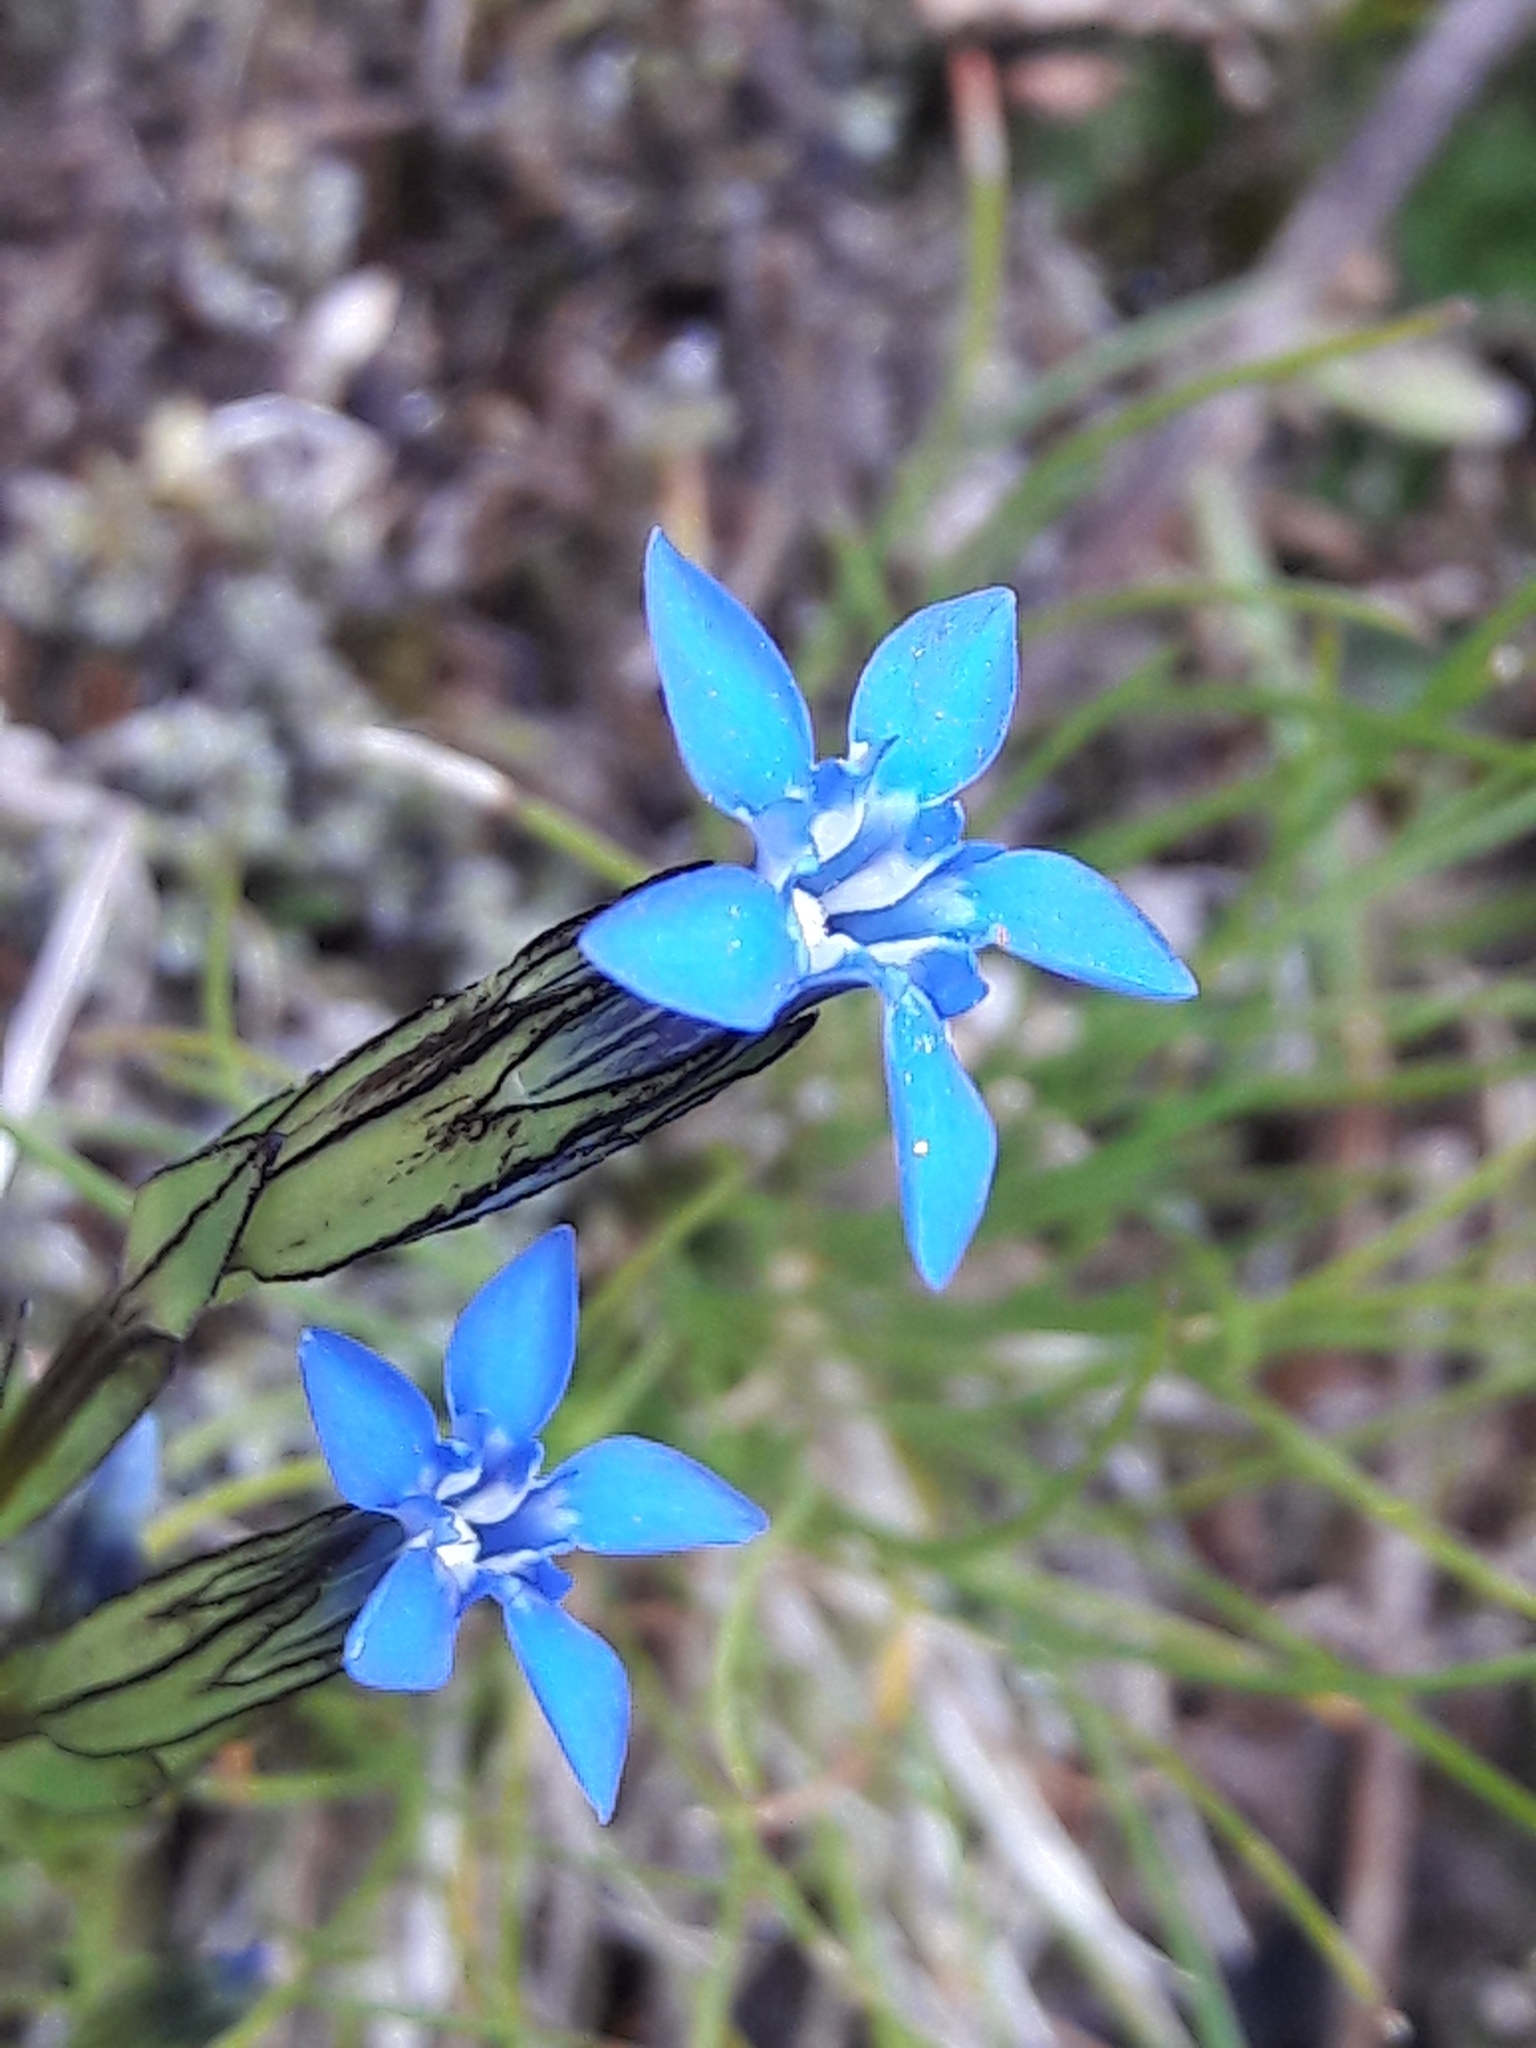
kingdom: Plantae
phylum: Tracheophyta
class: Magnoliopsida
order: Gentianales
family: Gentianaceae
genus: Gentiana
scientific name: Gentiana nivalis
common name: Alpine gentian
